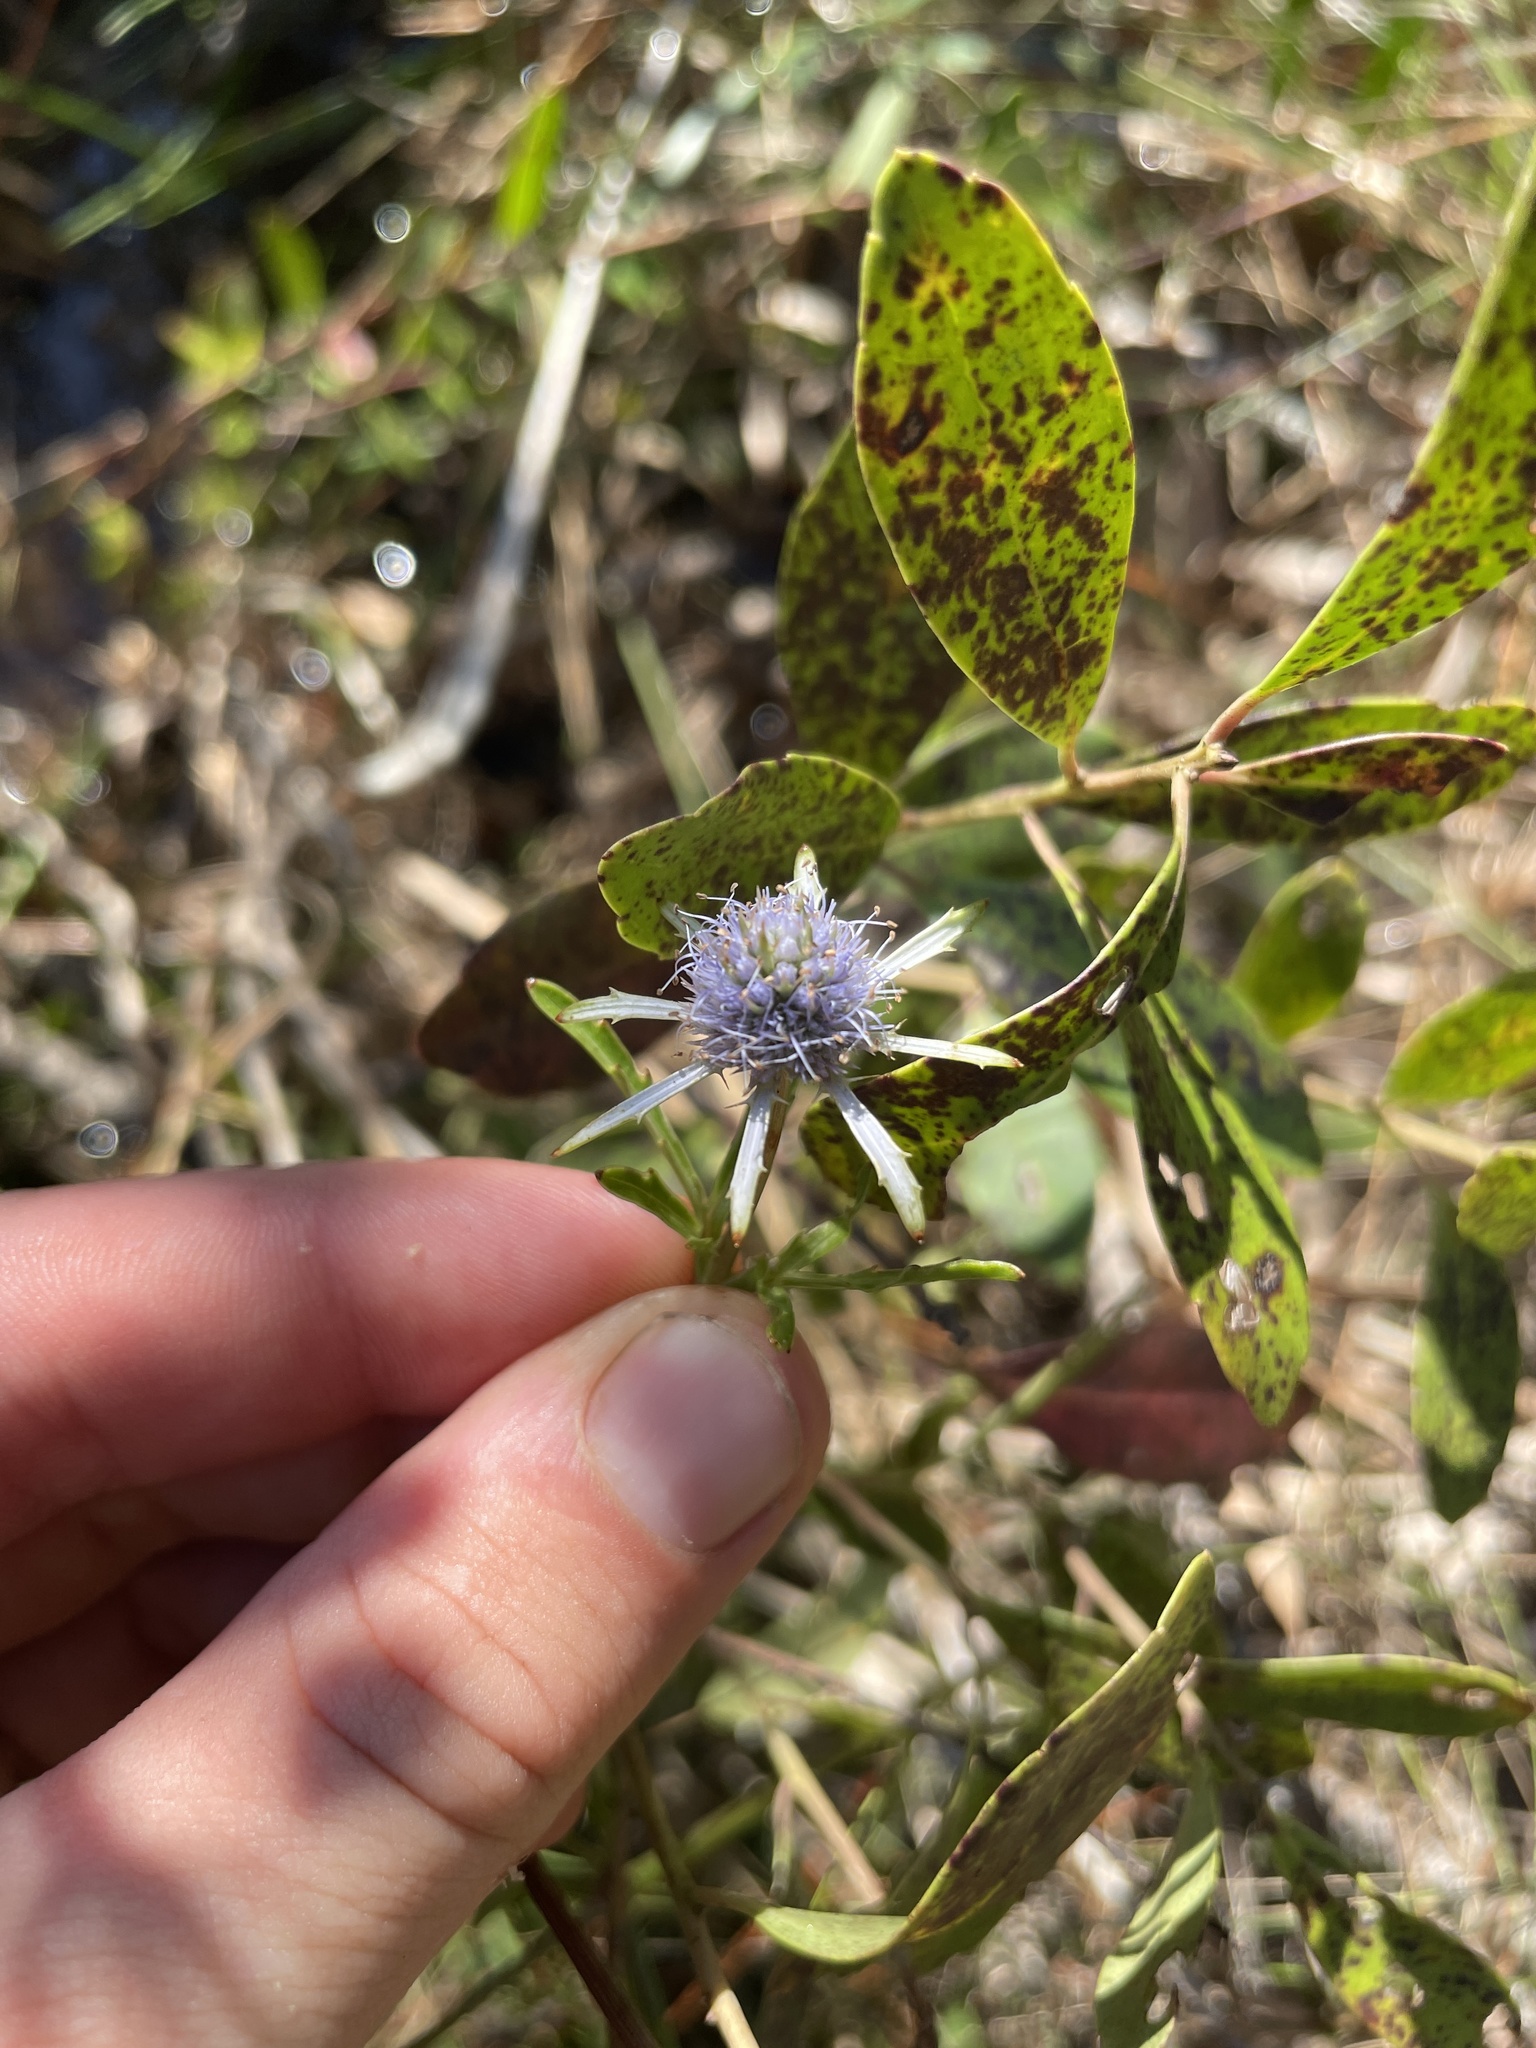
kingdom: Plantae
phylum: Tracheophyta
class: Magnoliopsida
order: Apiales
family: Apiaceae
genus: Eryngium
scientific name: Eryngium integrifolium
